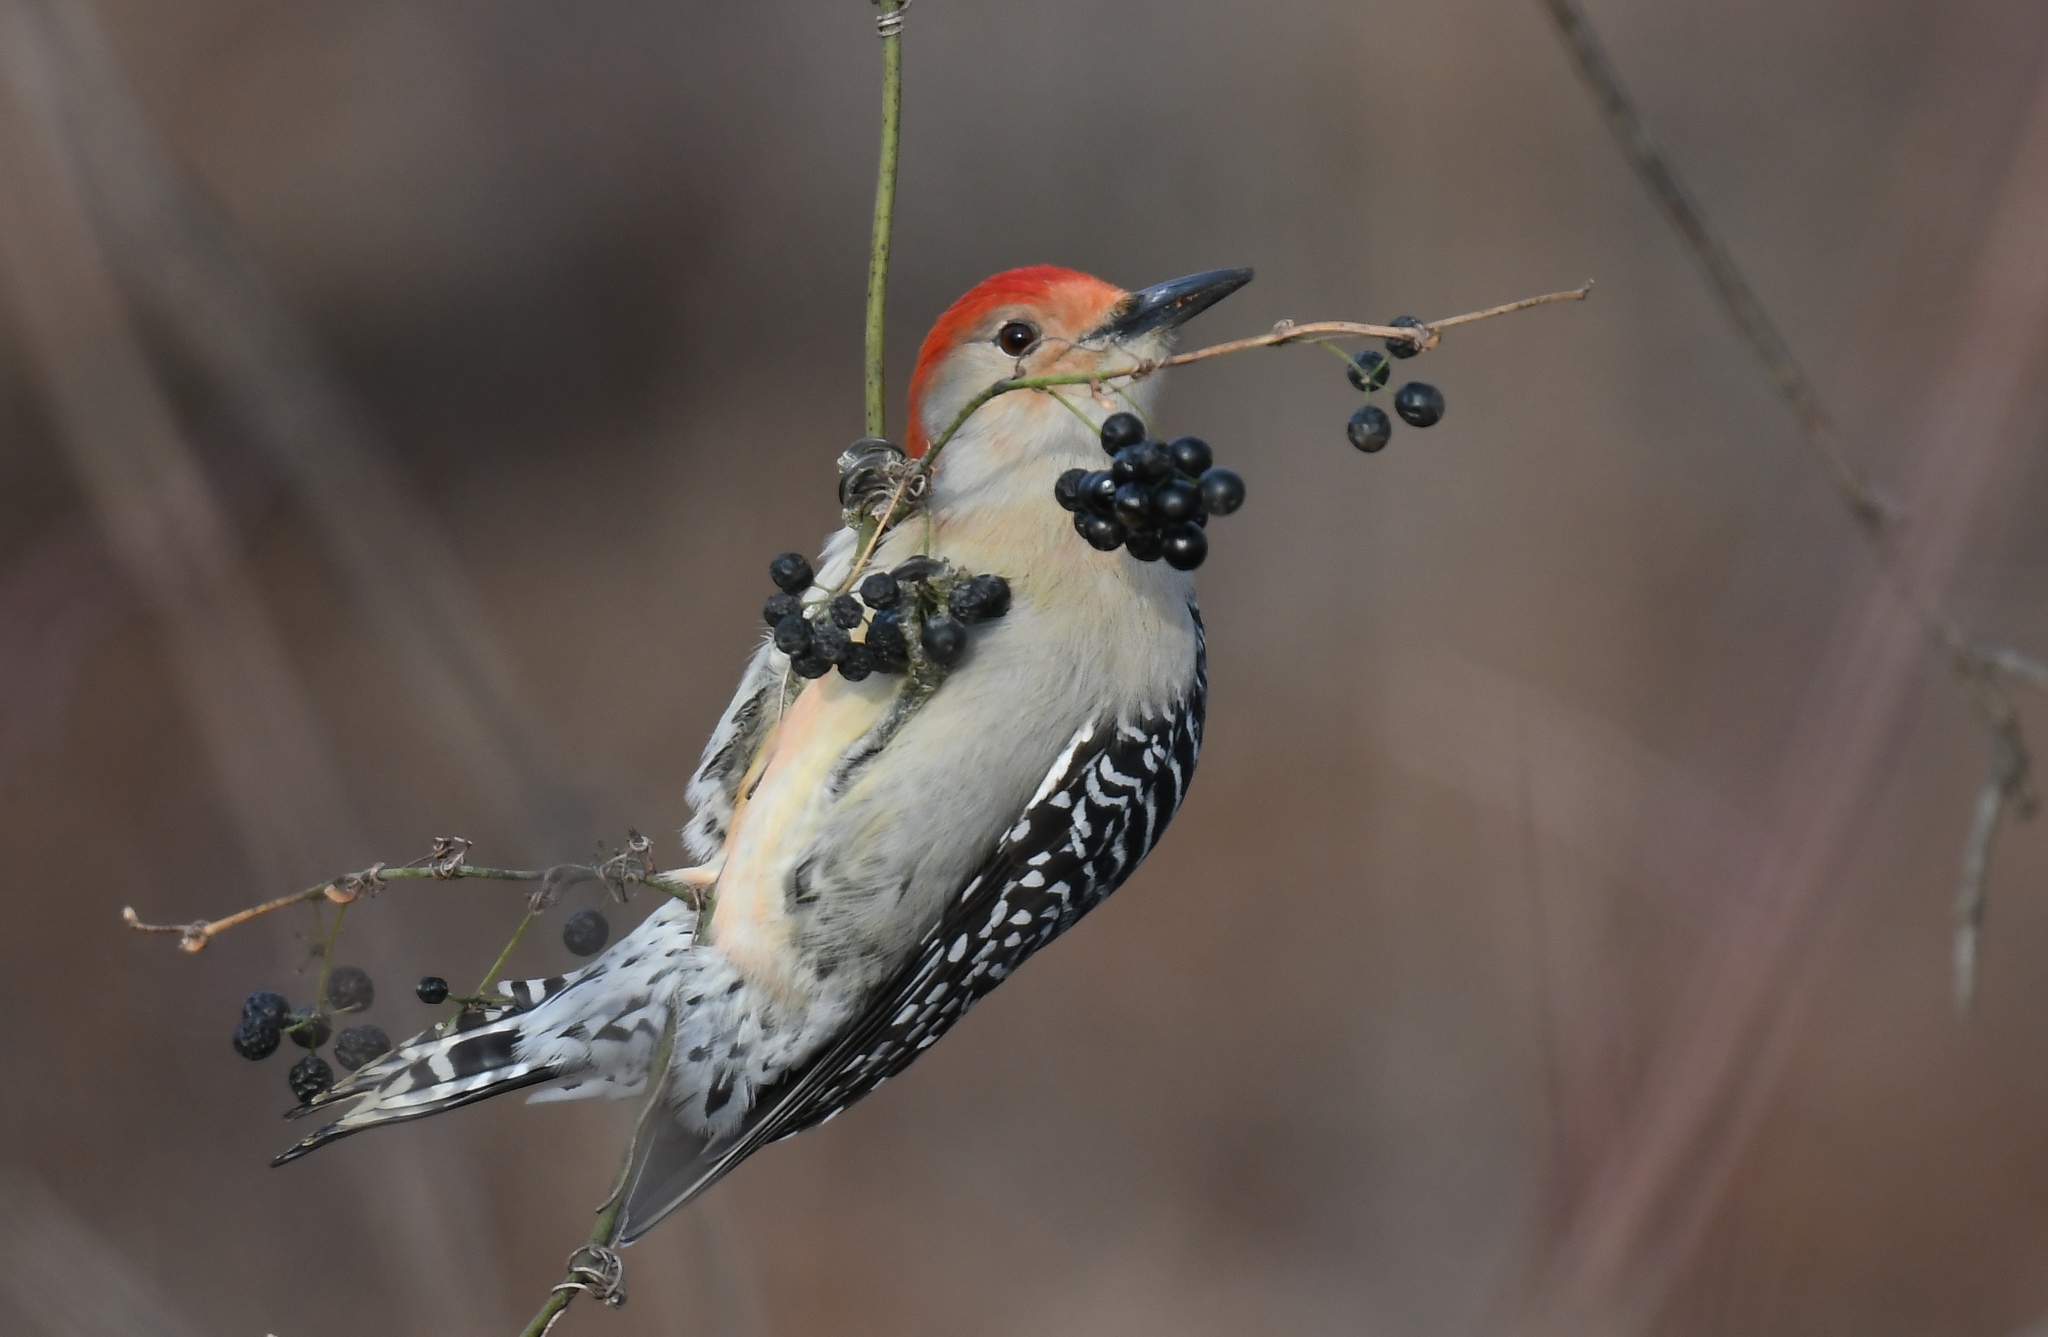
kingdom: Animalia
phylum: Chordata
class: Aves
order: Piciformes
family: Picidae
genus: Melanerpes
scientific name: Melanerpes carolinus
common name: Red-bellied woodpecker
